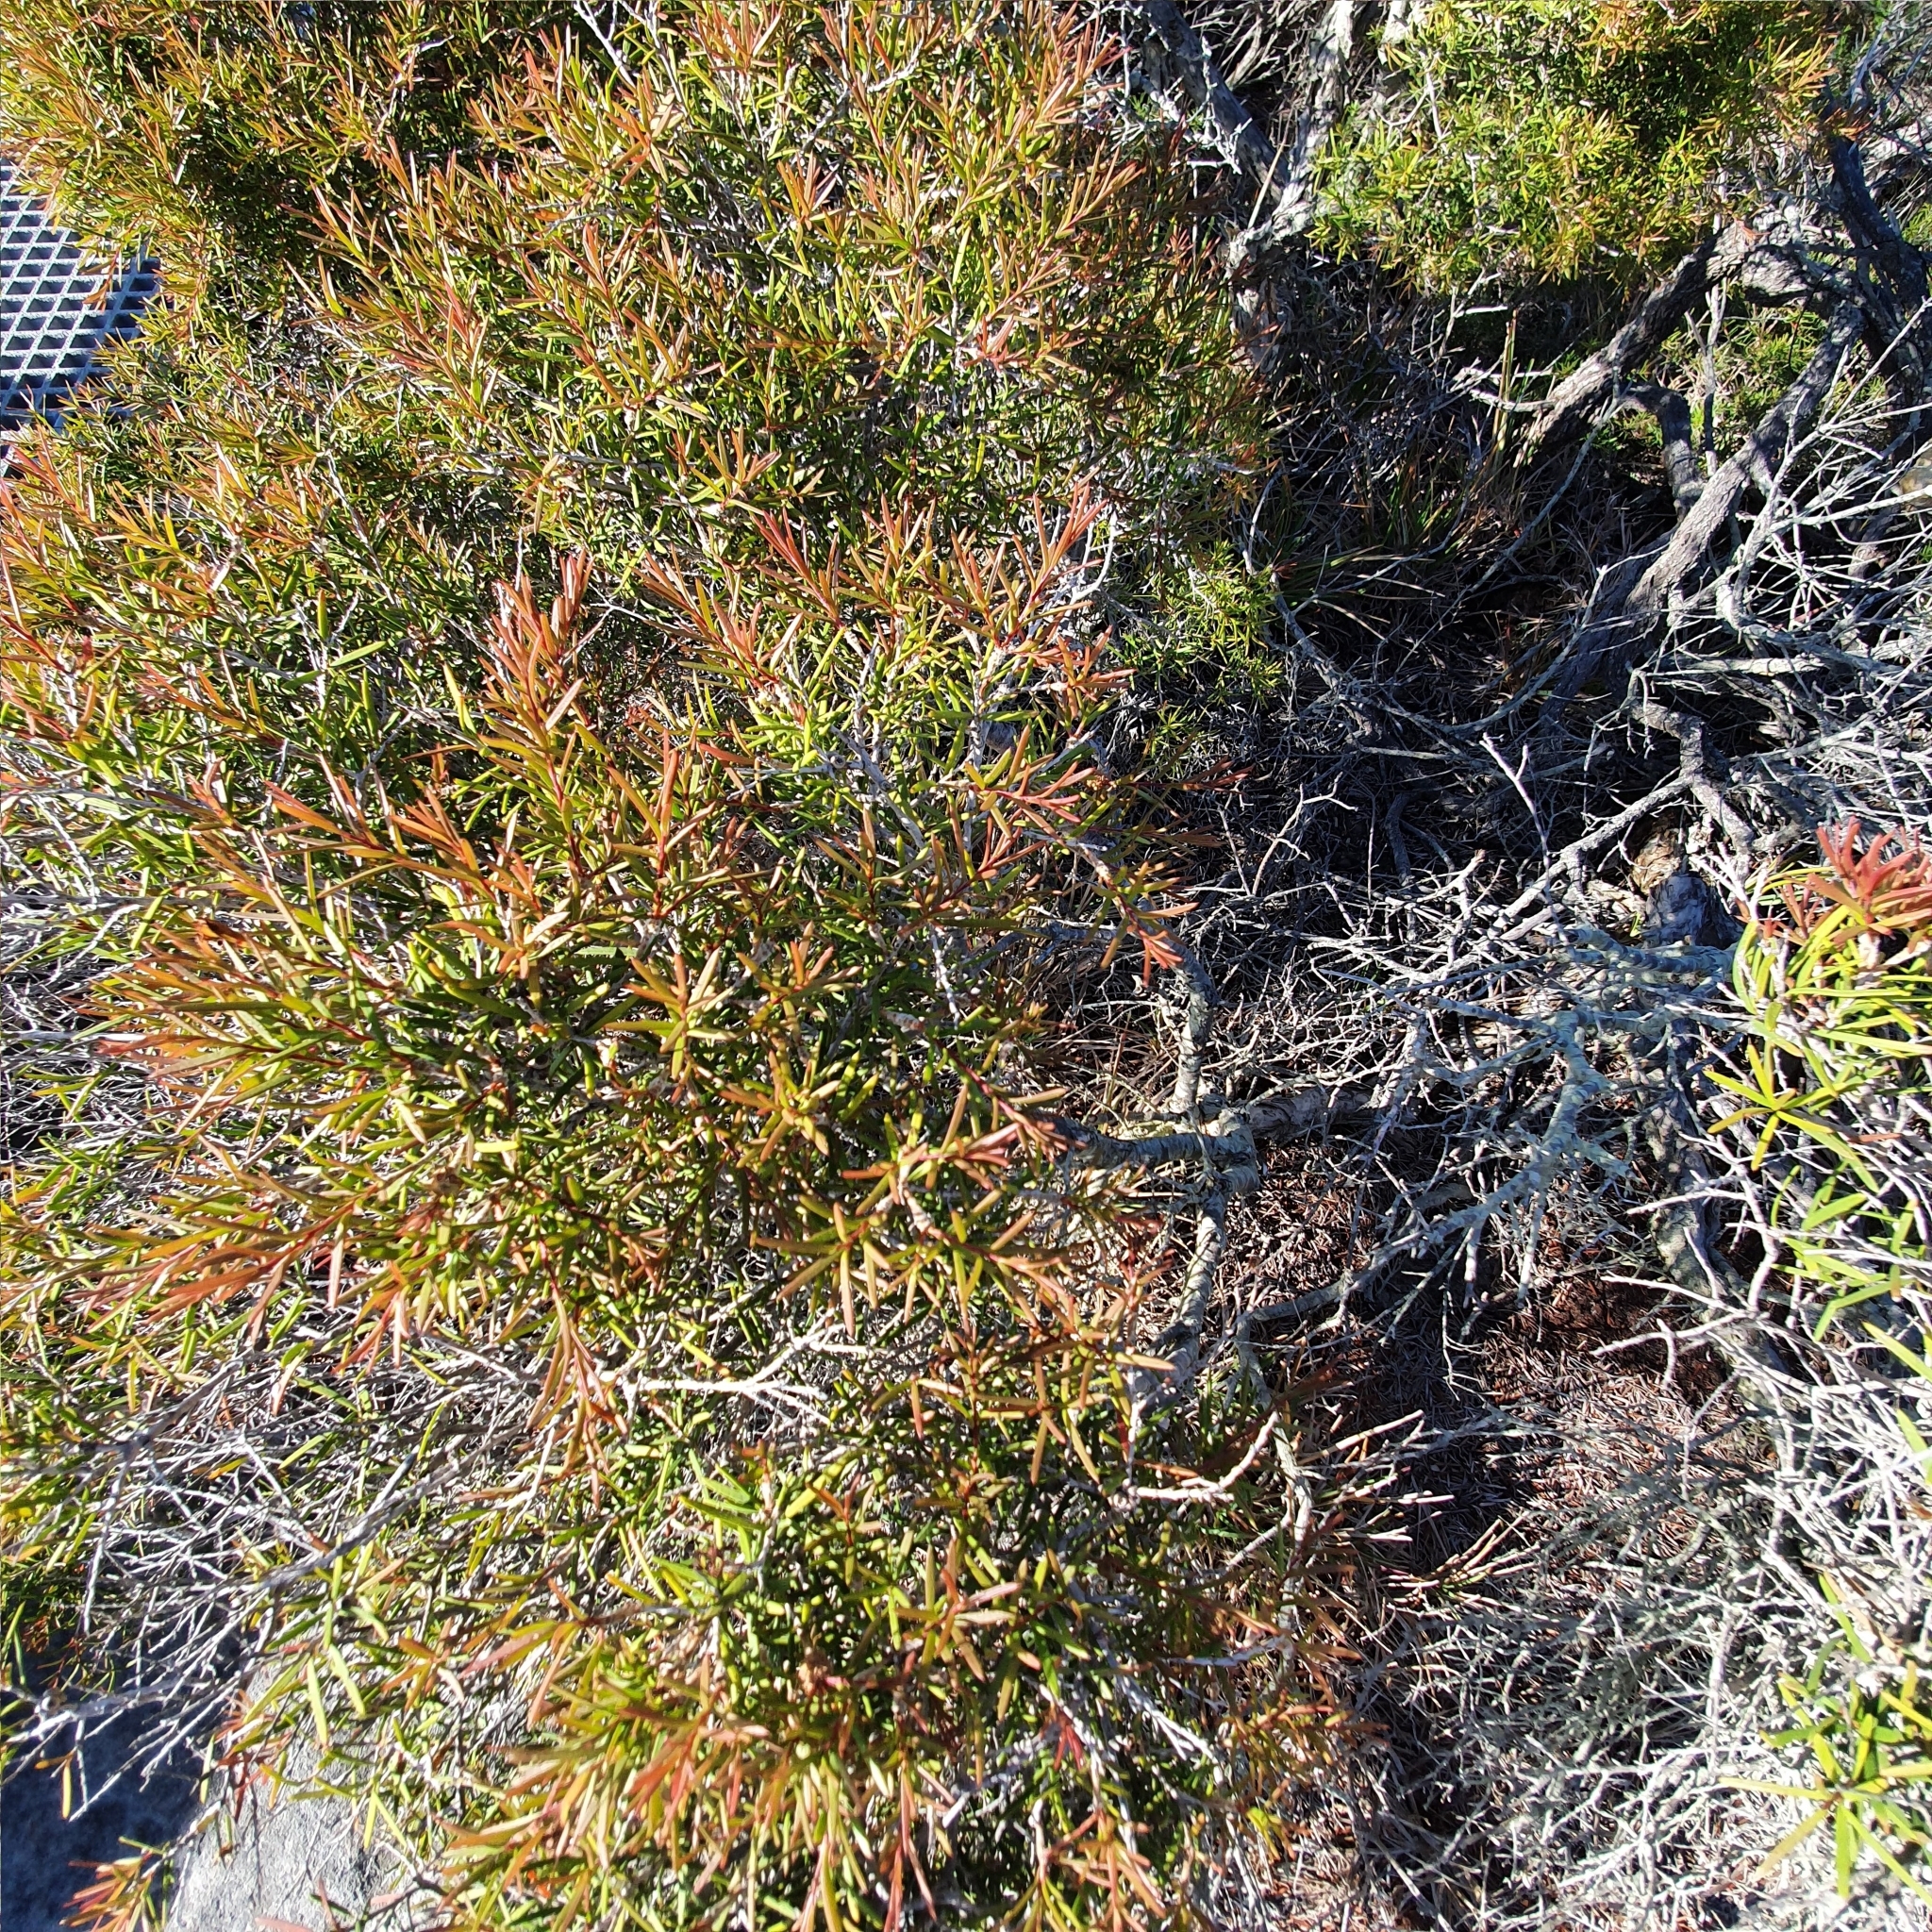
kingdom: Plantae
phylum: Tracheophyta
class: Magnoliopsida
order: Myrtales
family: Myrtaceae
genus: Melaleuca
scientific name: Melaleuca nodosa
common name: Prickly-leaf paperbark
